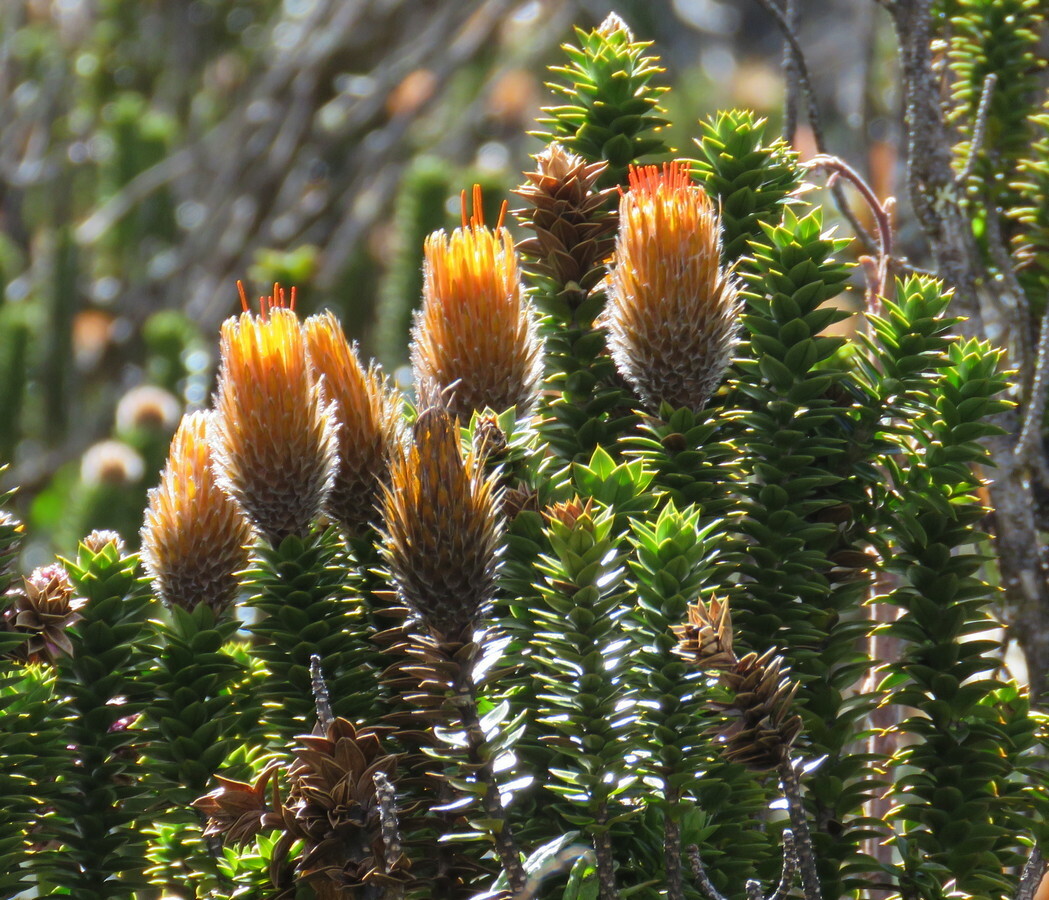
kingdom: Plantae
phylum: Tracheophyta
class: Magnoliopsida
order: Asterales
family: Asteraceae
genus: Chuquiraga
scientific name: Chuquiraga jussieui
